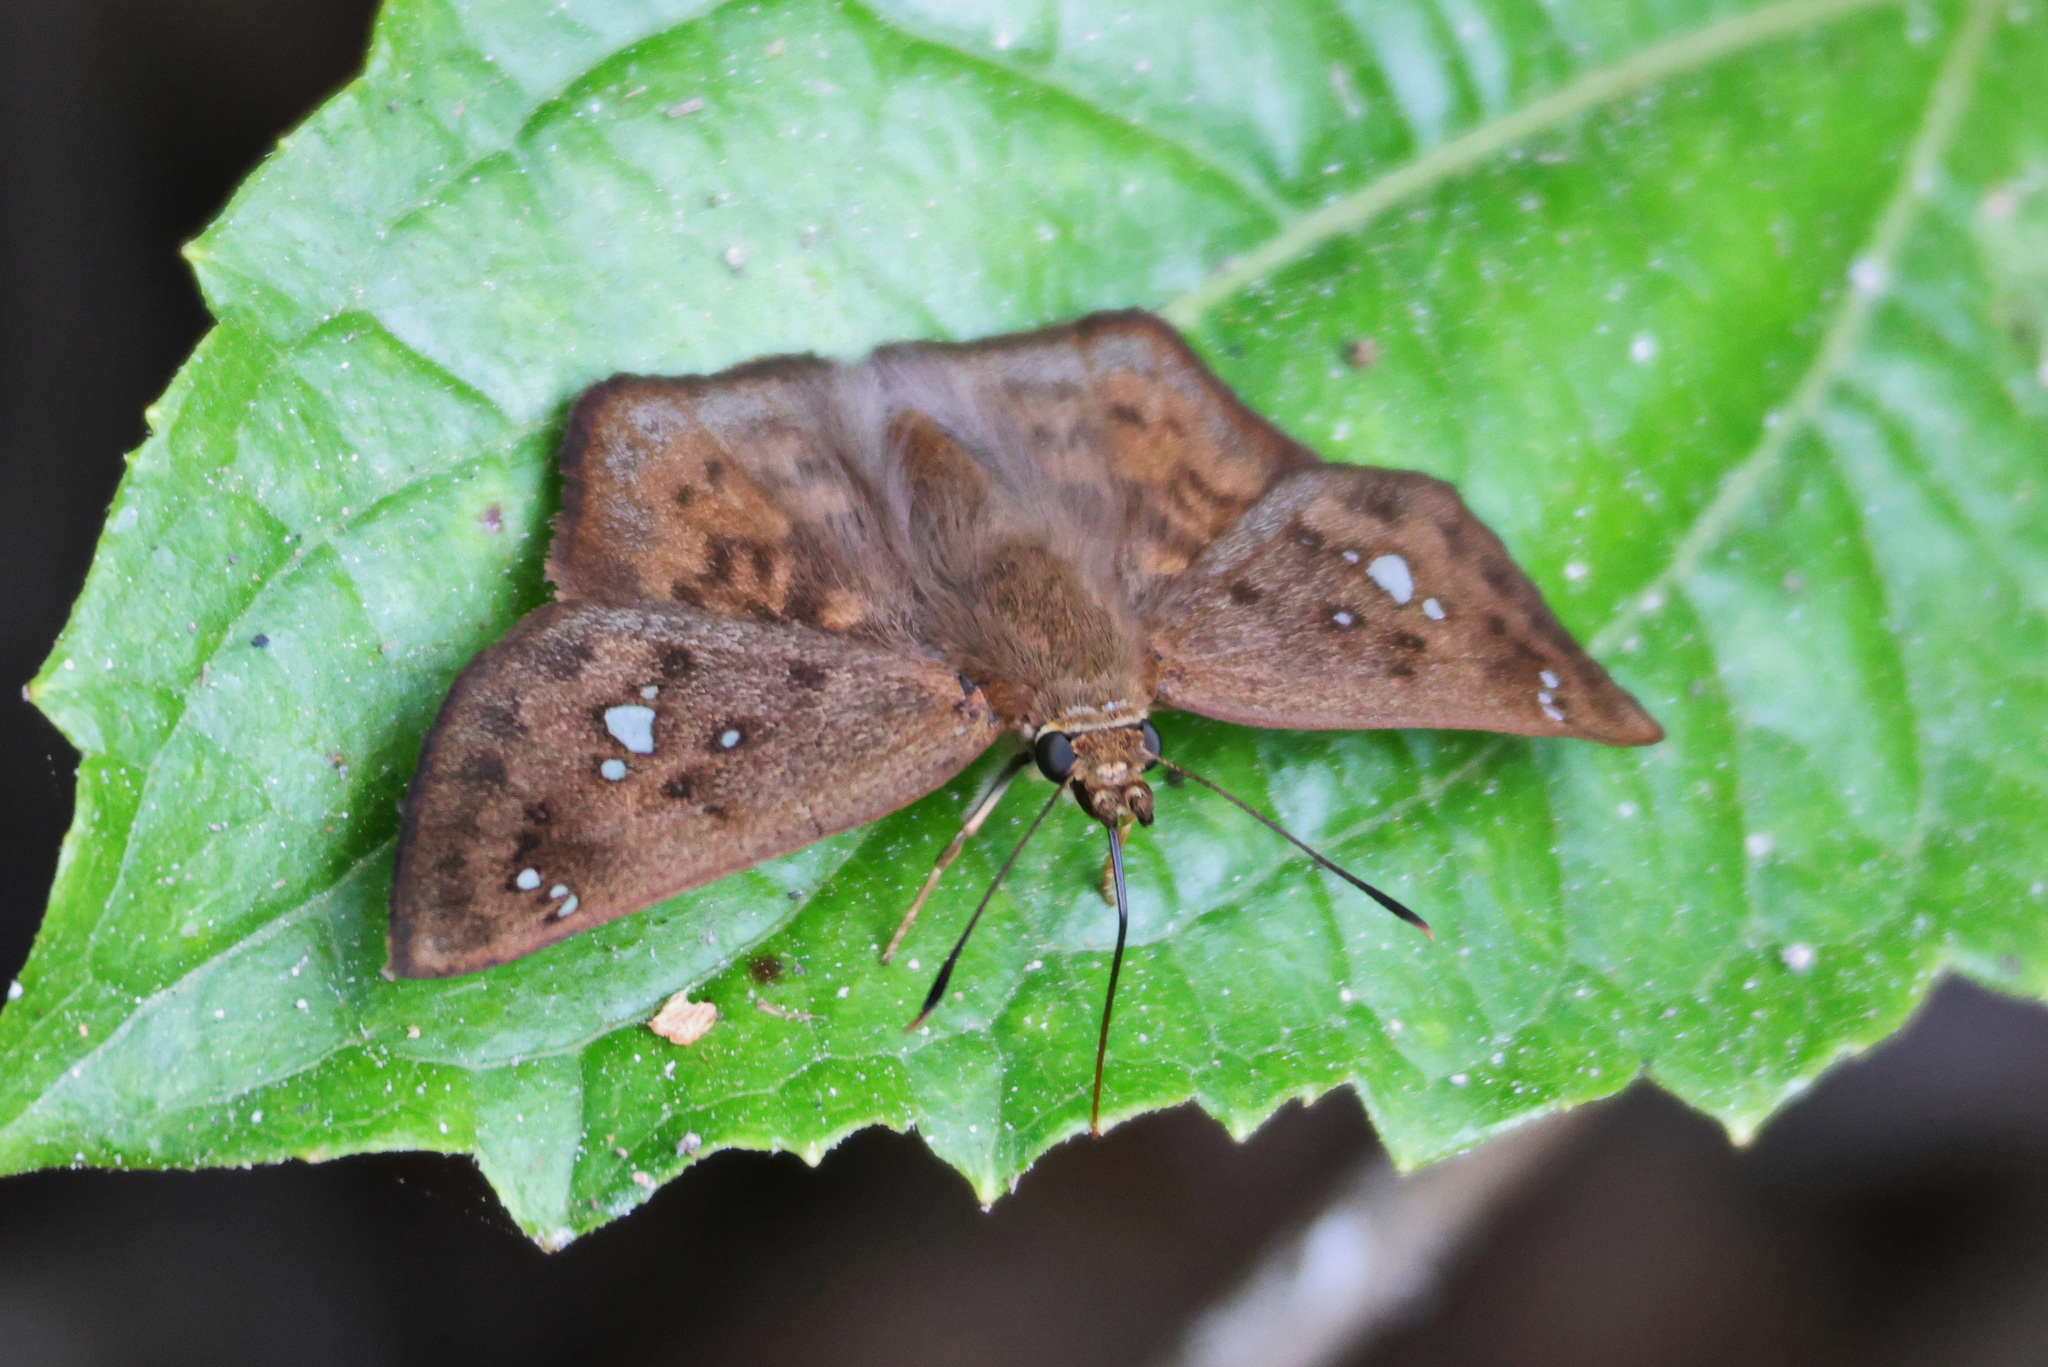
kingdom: Animalia
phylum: Arthropoda
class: Insecta
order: Lepidoptera
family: Hesperiidae
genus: Polyctor
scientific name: Polyctor enops
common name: Enops tufted-skipper
